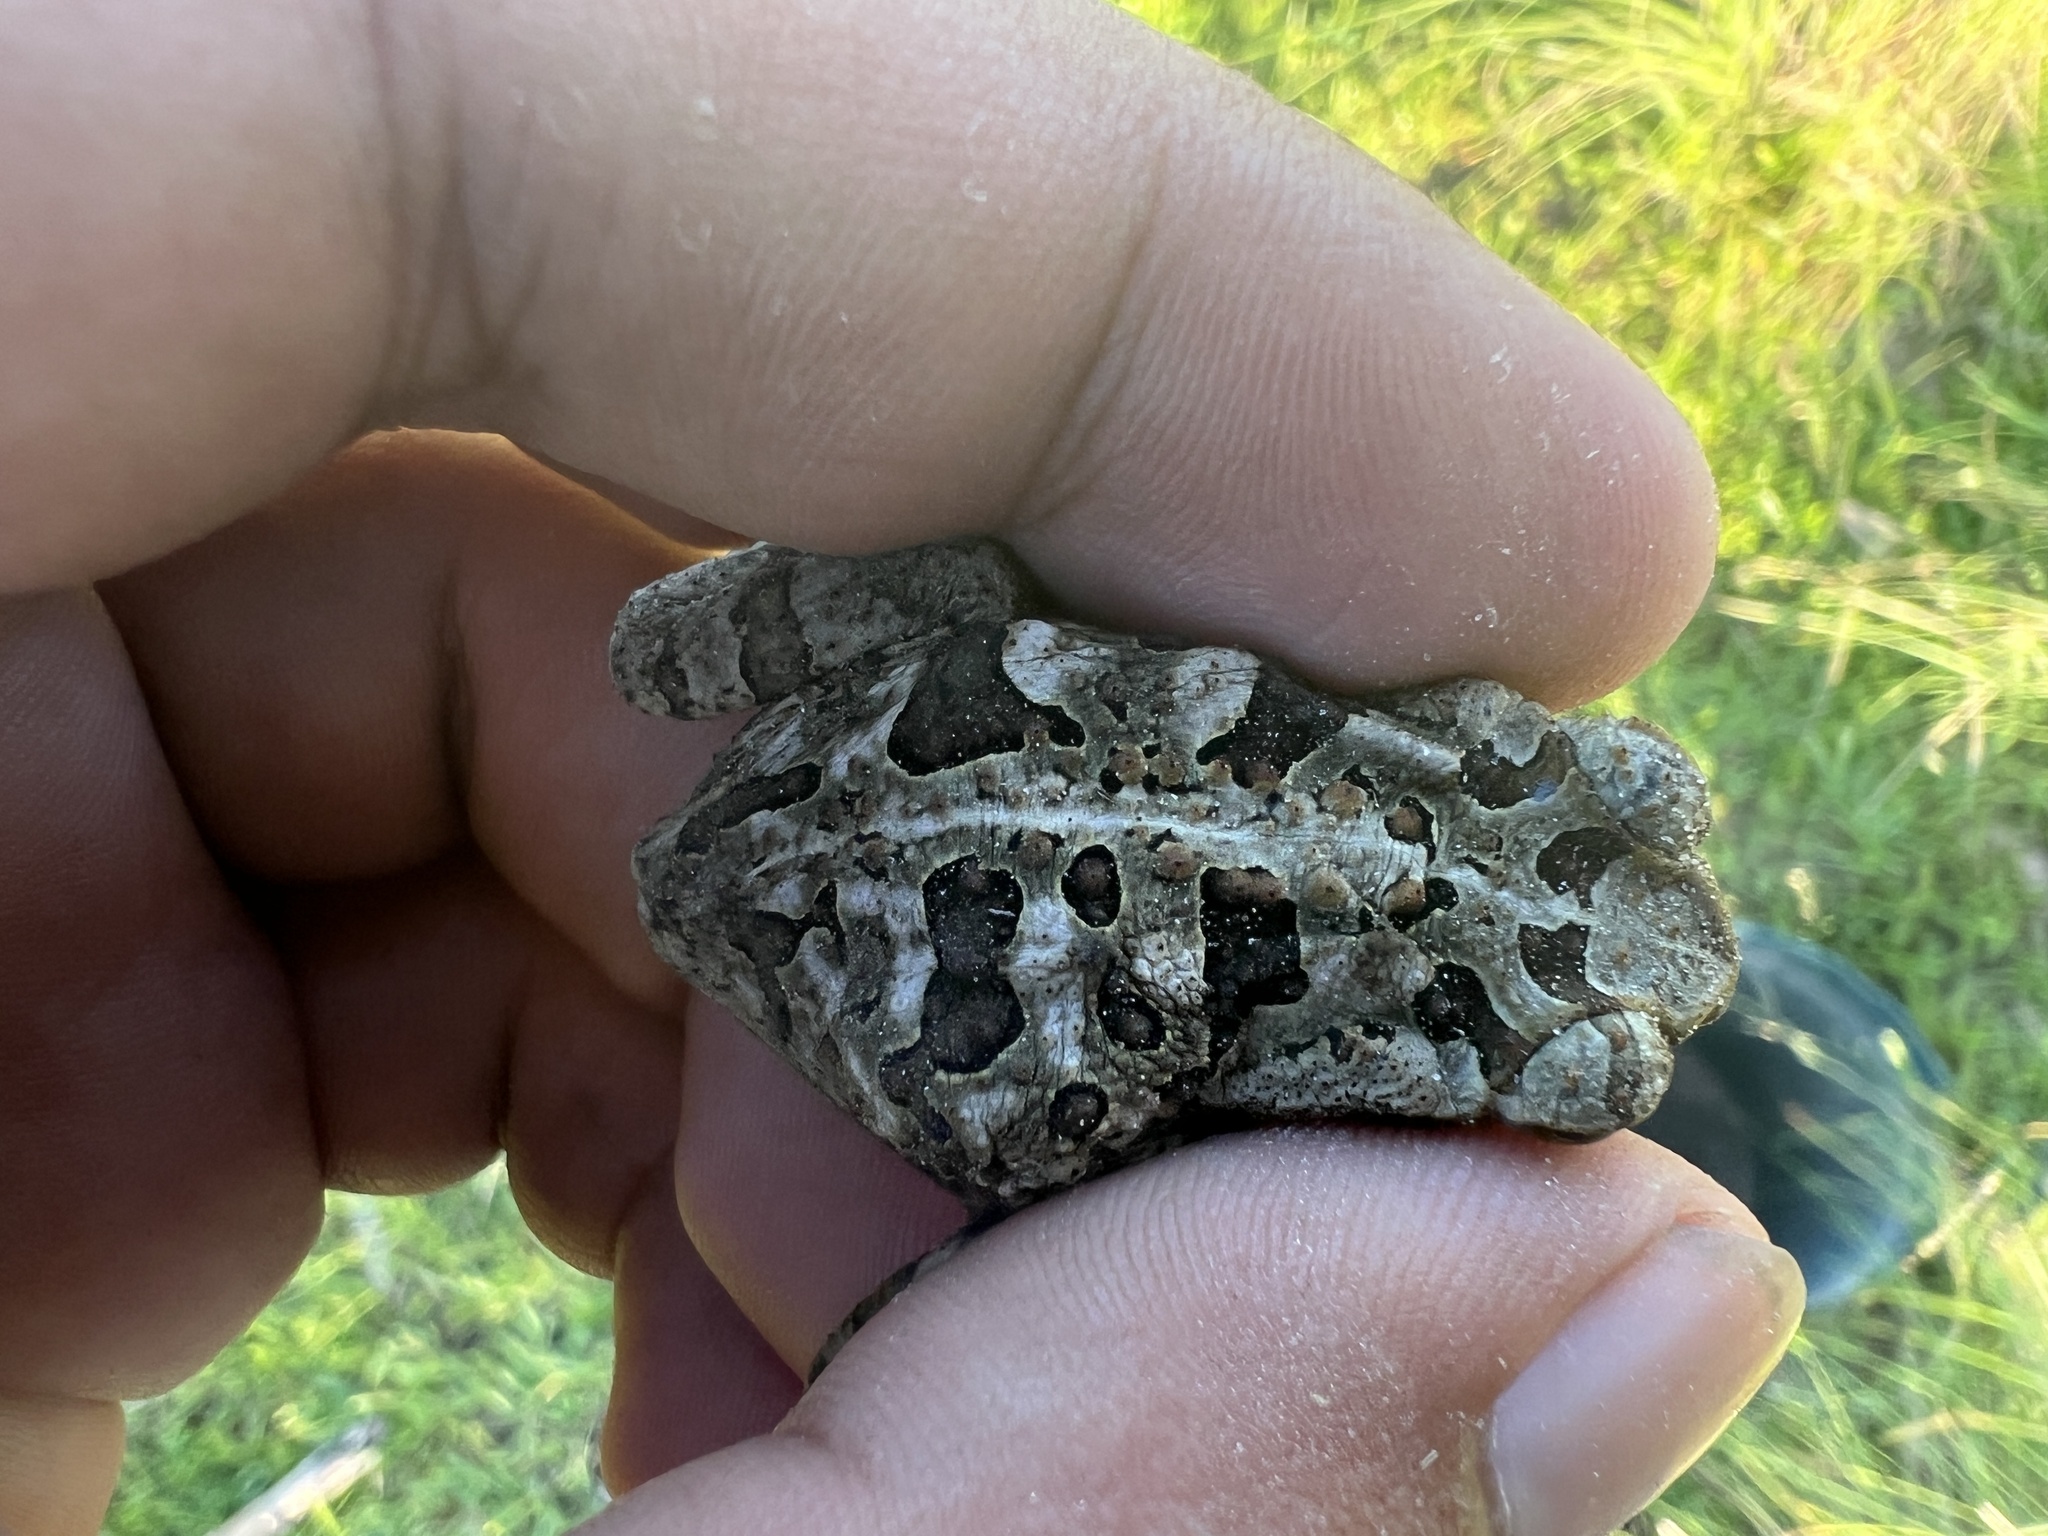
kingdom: Animalia
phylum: Chordata
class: Amphibia
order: Anura
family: Bufonidae
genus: Rhinella
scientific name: Rhinella diptycha
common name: Cope's toad
